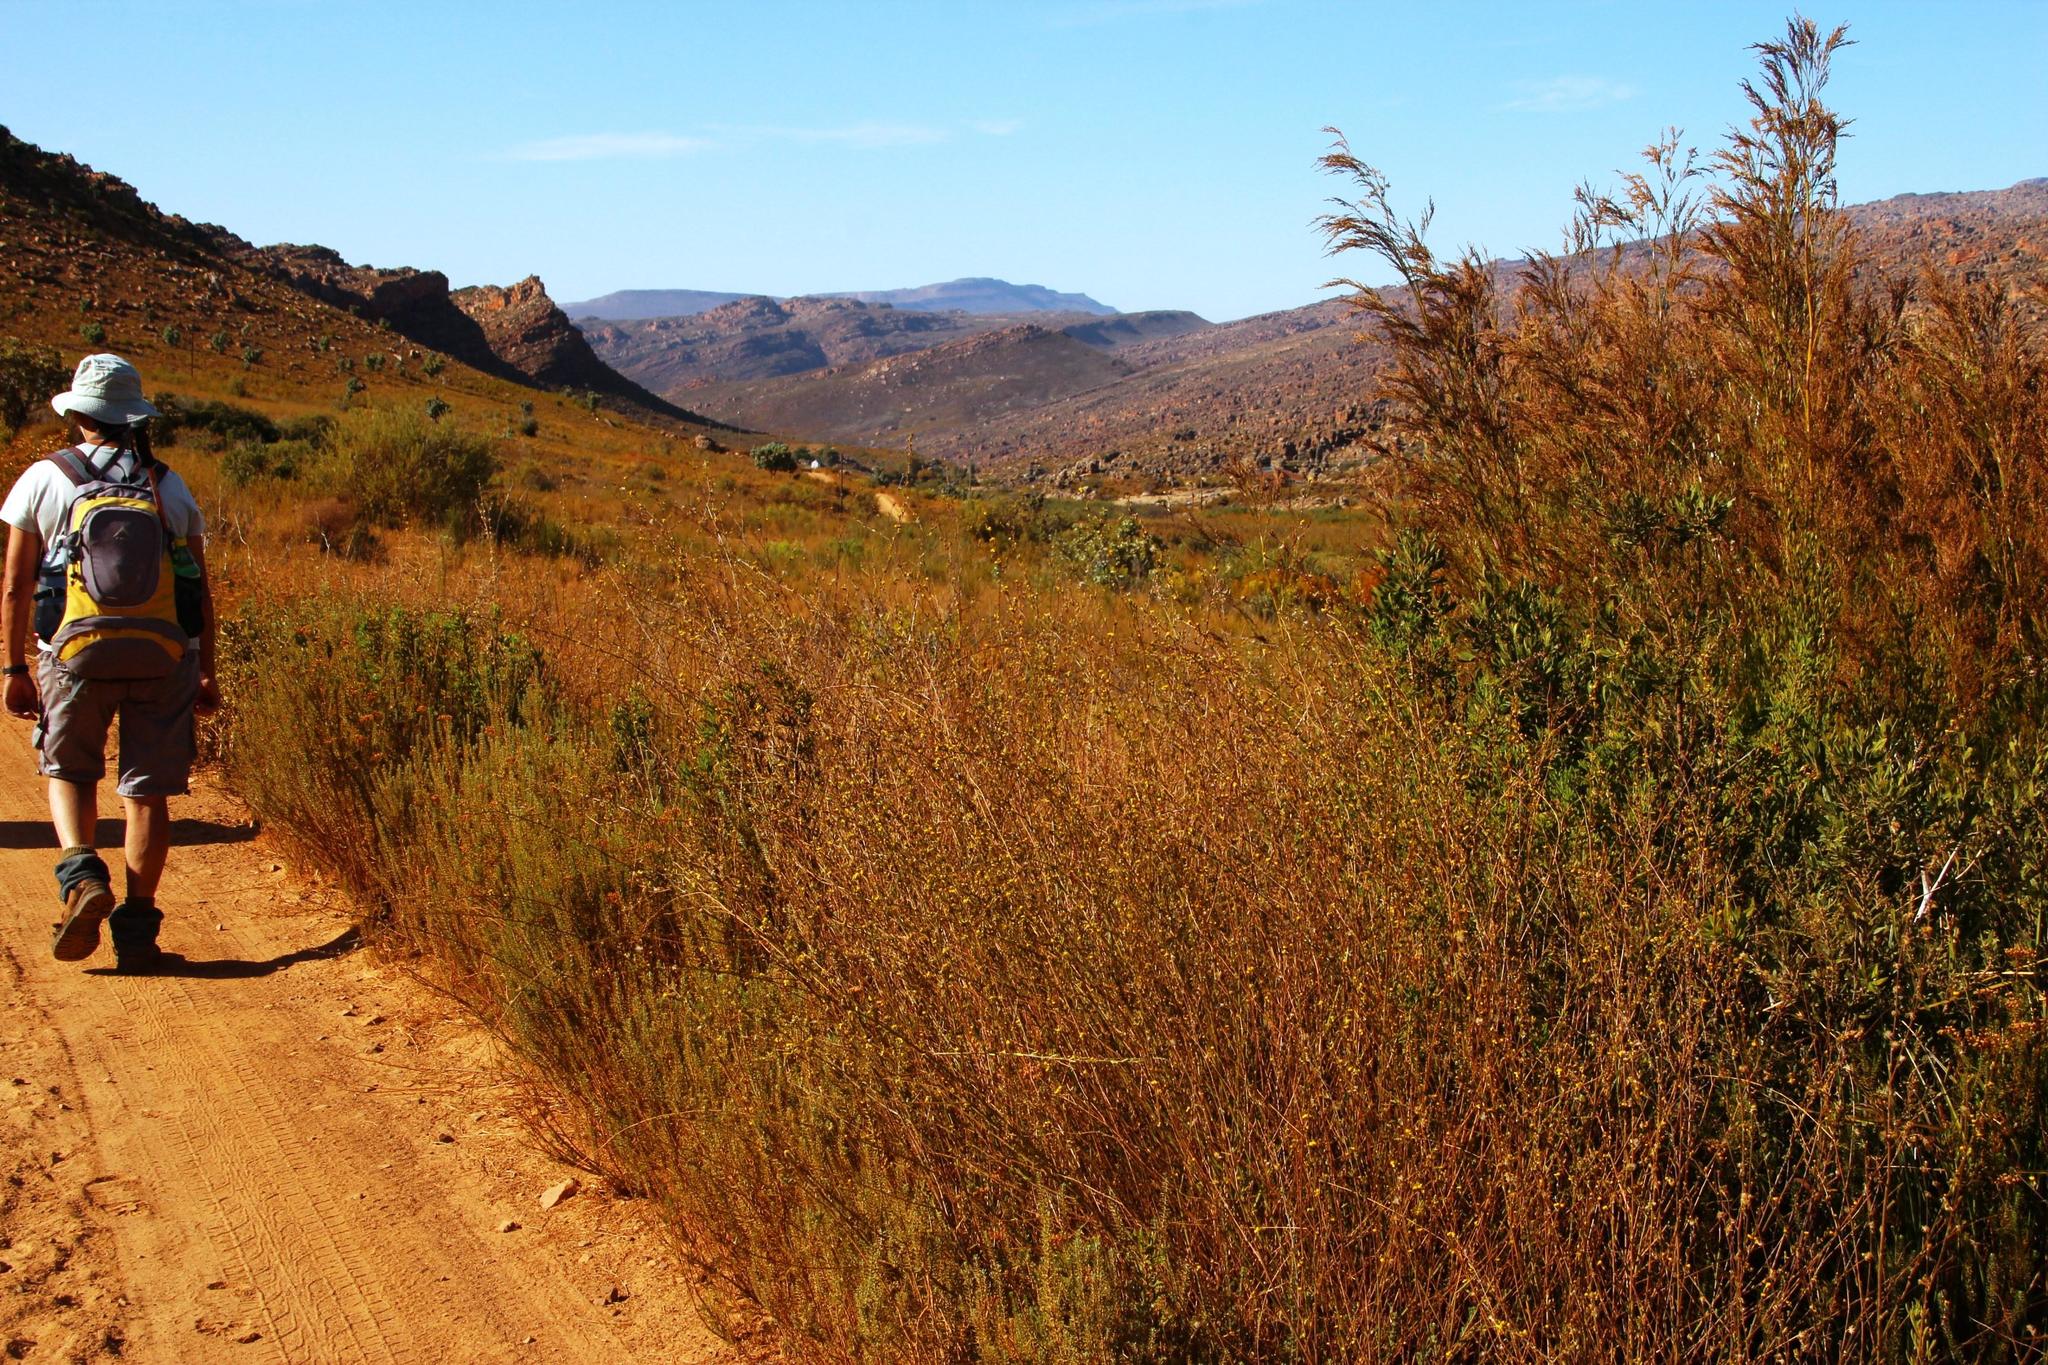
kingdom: Plantae
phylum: Tracheophyta
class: Magnoliopsida
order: Asterales
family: Asteraceae
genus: Senecio
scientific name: Senecio pubigerus
